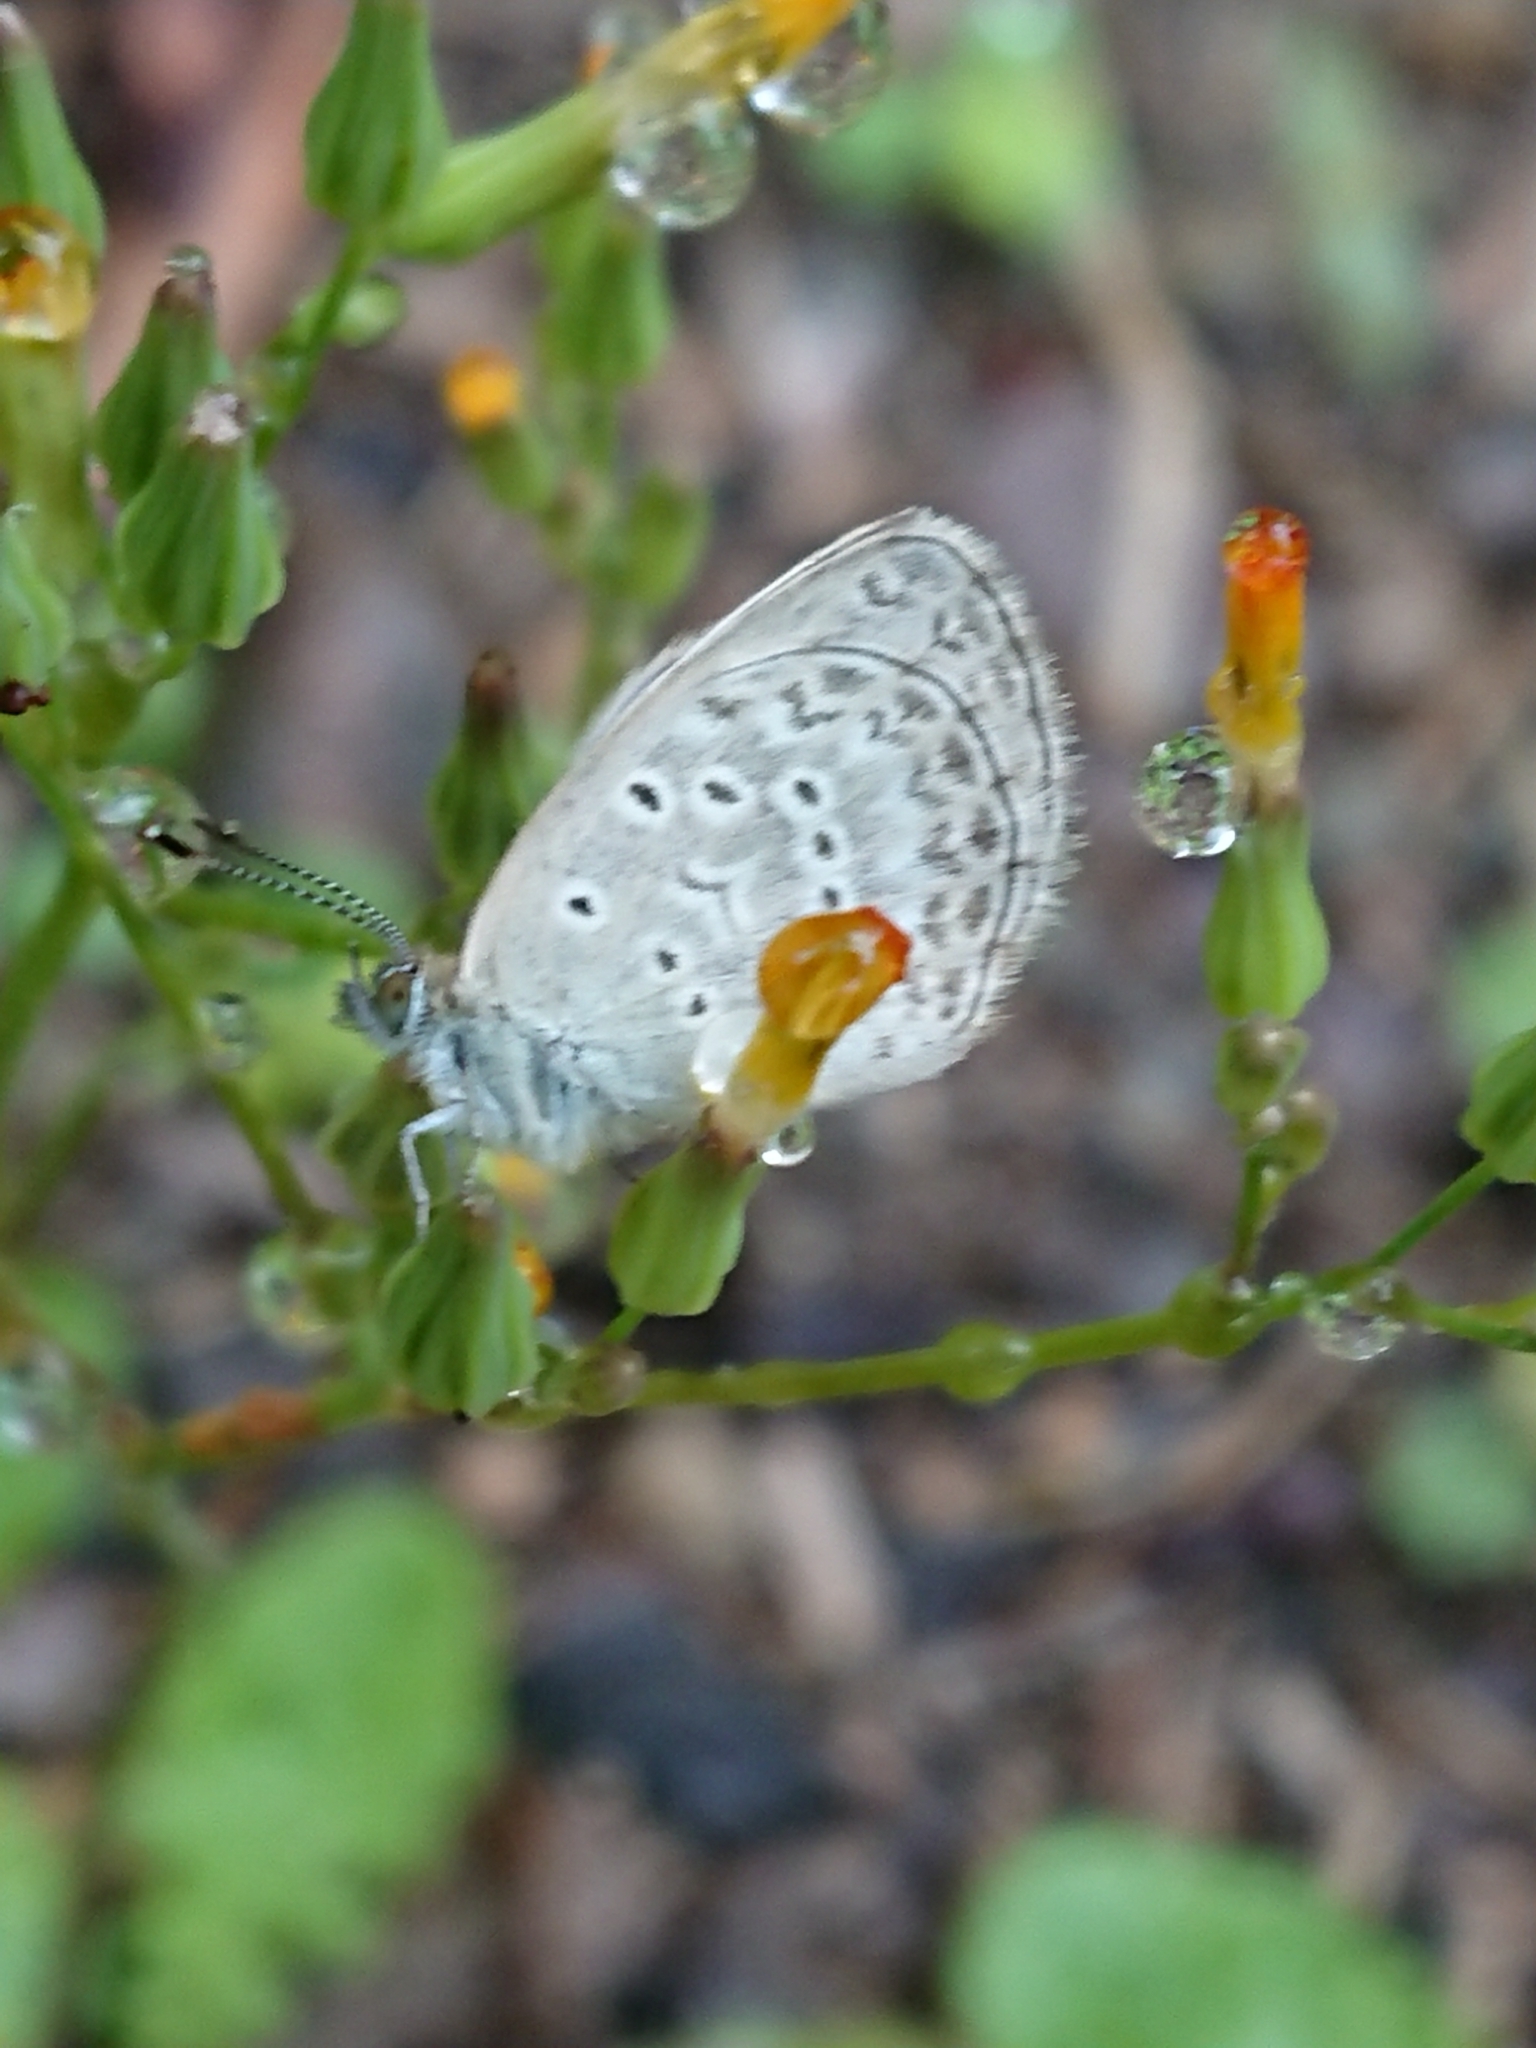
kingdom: Animalia
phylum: Arthropoda
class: Insecta
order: Lepidoptera
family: Lycaenidae
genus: Zizula
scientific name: Zizula hylax
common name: Gaika blue
